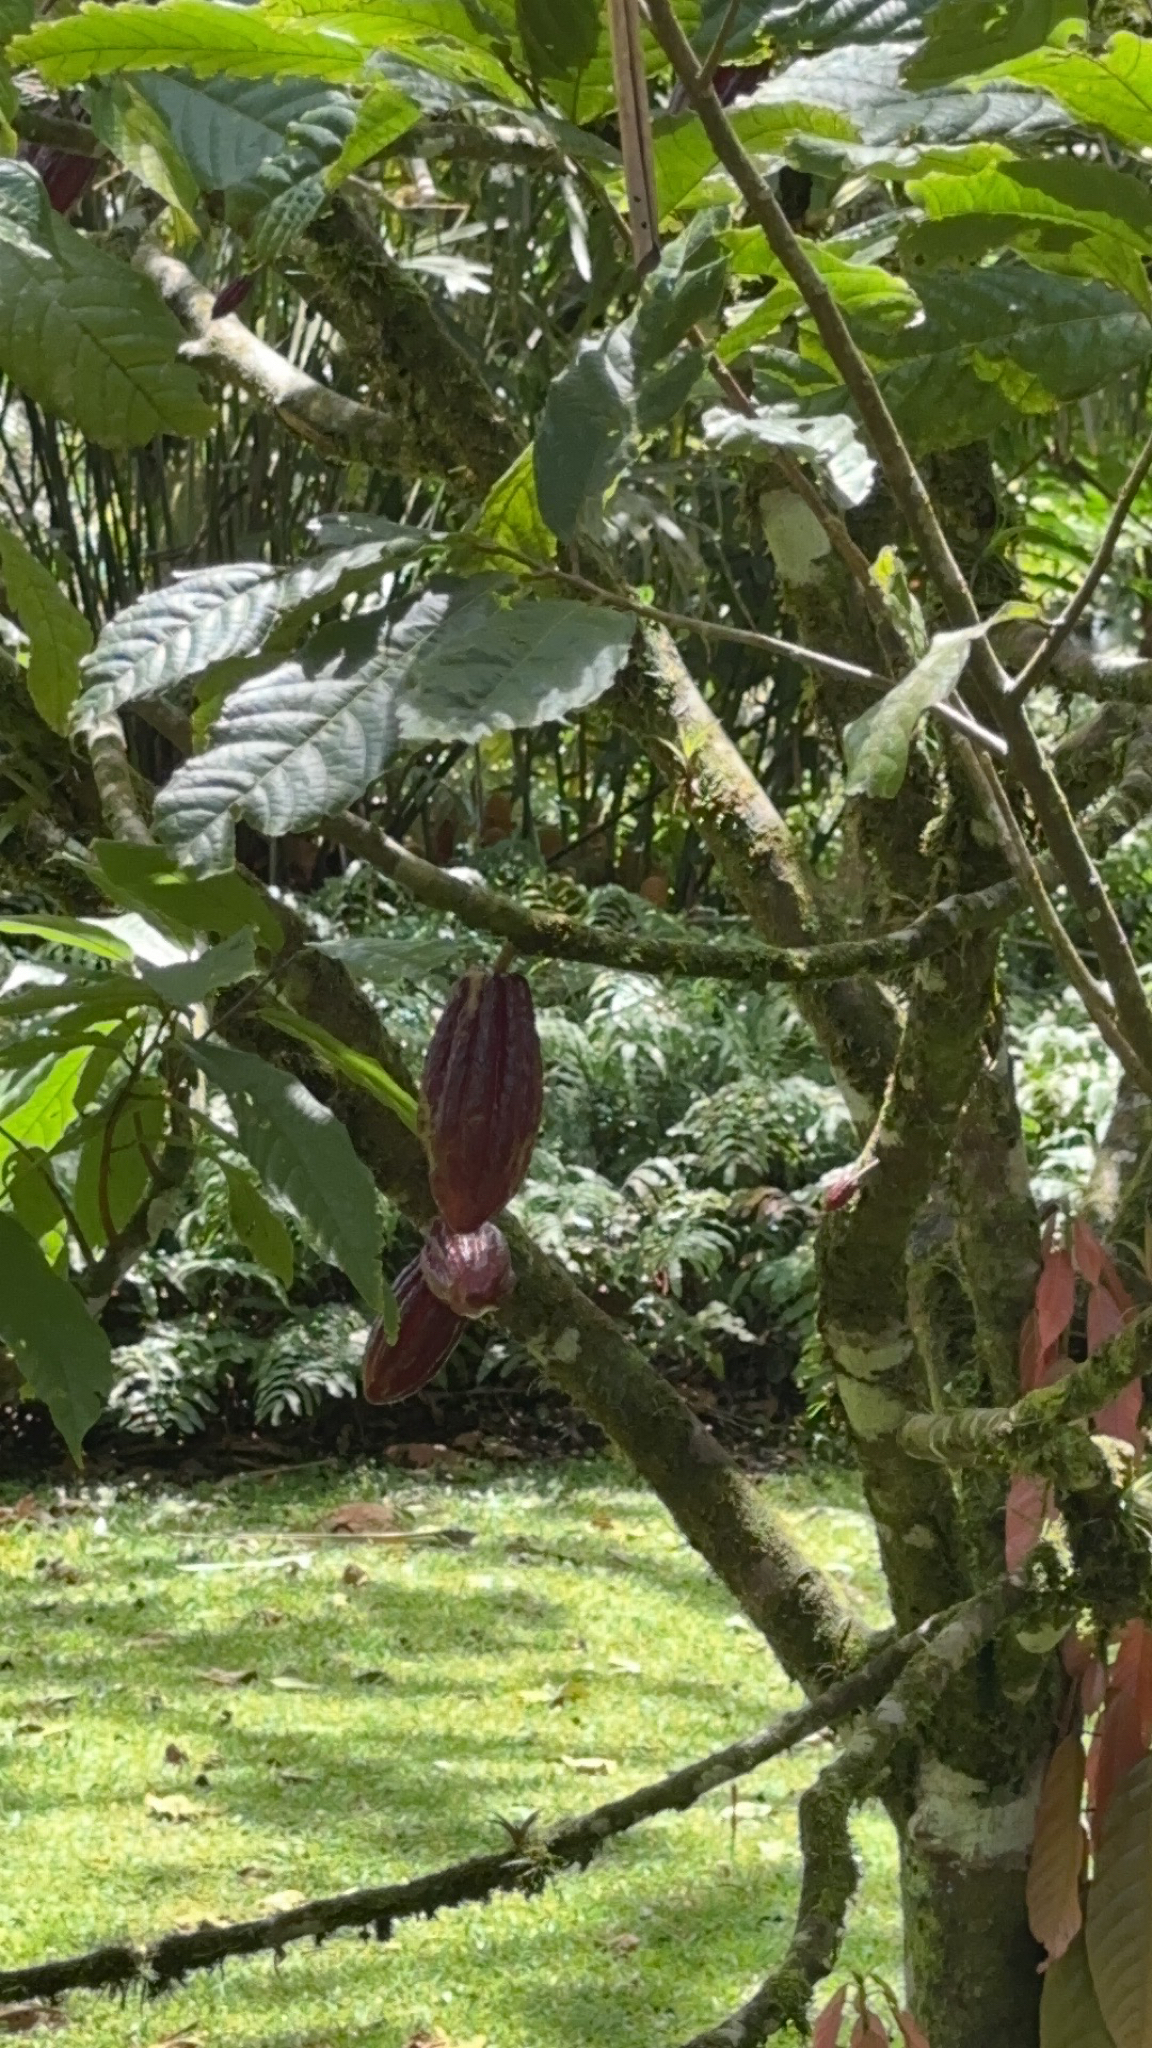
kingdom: Plantae
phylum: Tracheophyta
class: Magnoliopsida
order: Malvales
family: Malvaceae
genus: Theobroma
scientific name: Theobroma cacao
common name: Cocoa
